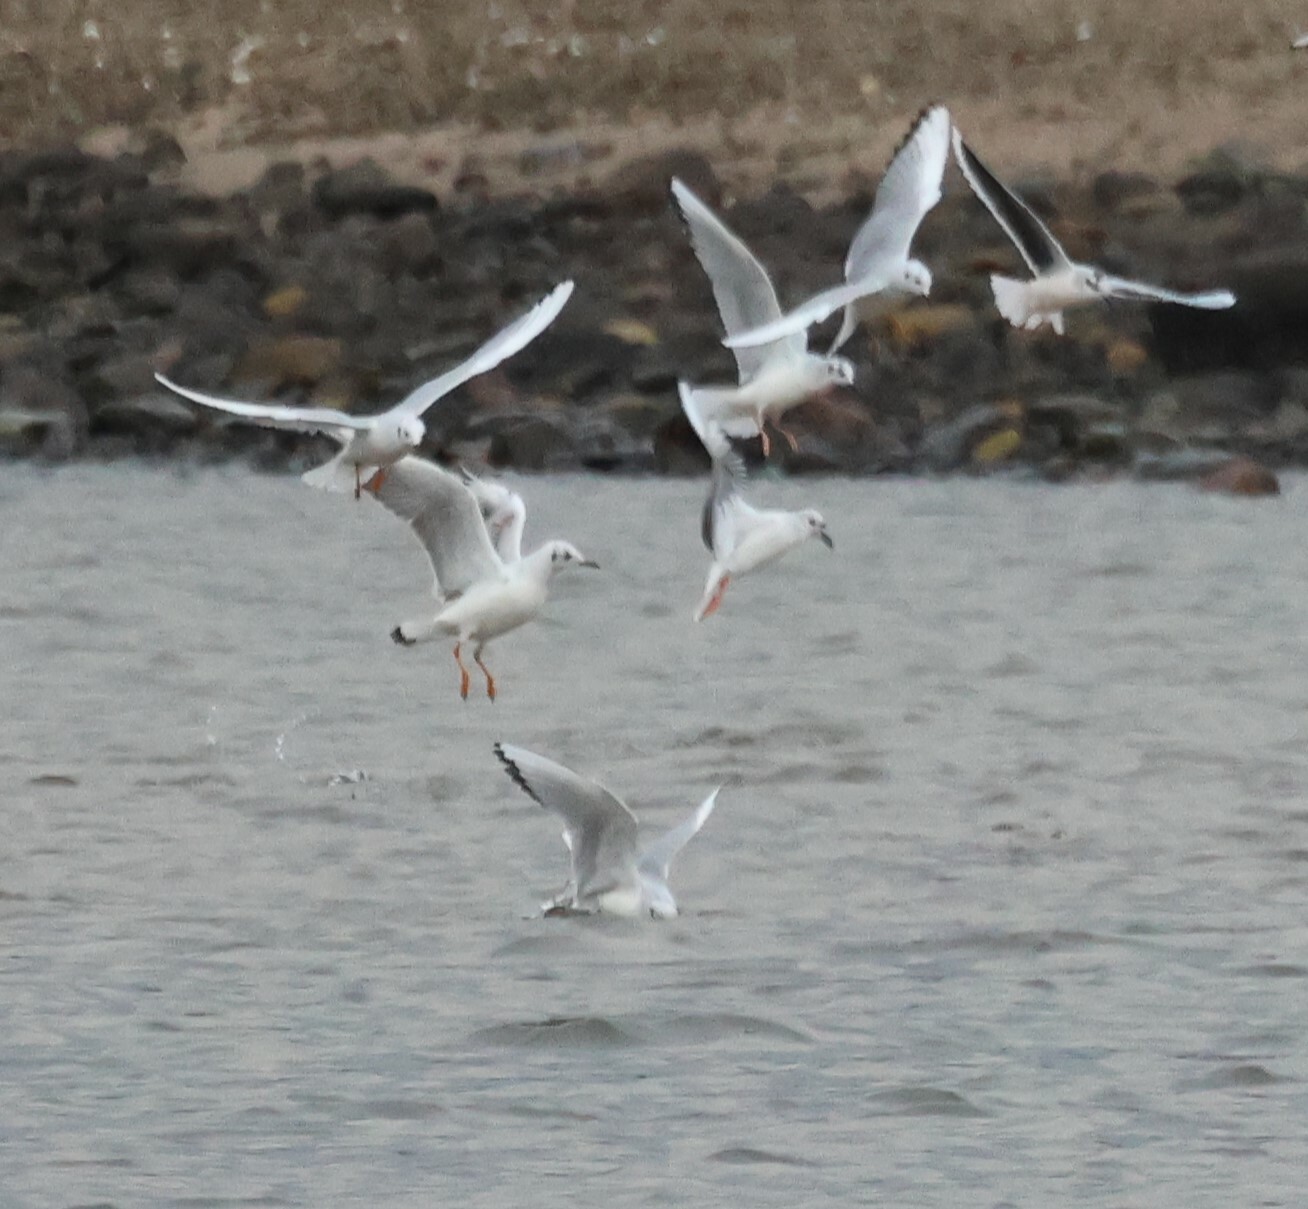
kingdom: Animalia
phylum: Chordata
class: Aves
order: Charadriiformes
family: Laridae
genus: Chroicocephalus
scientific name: Chroicocephalus philadelphia
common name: Bonaparte's gull
